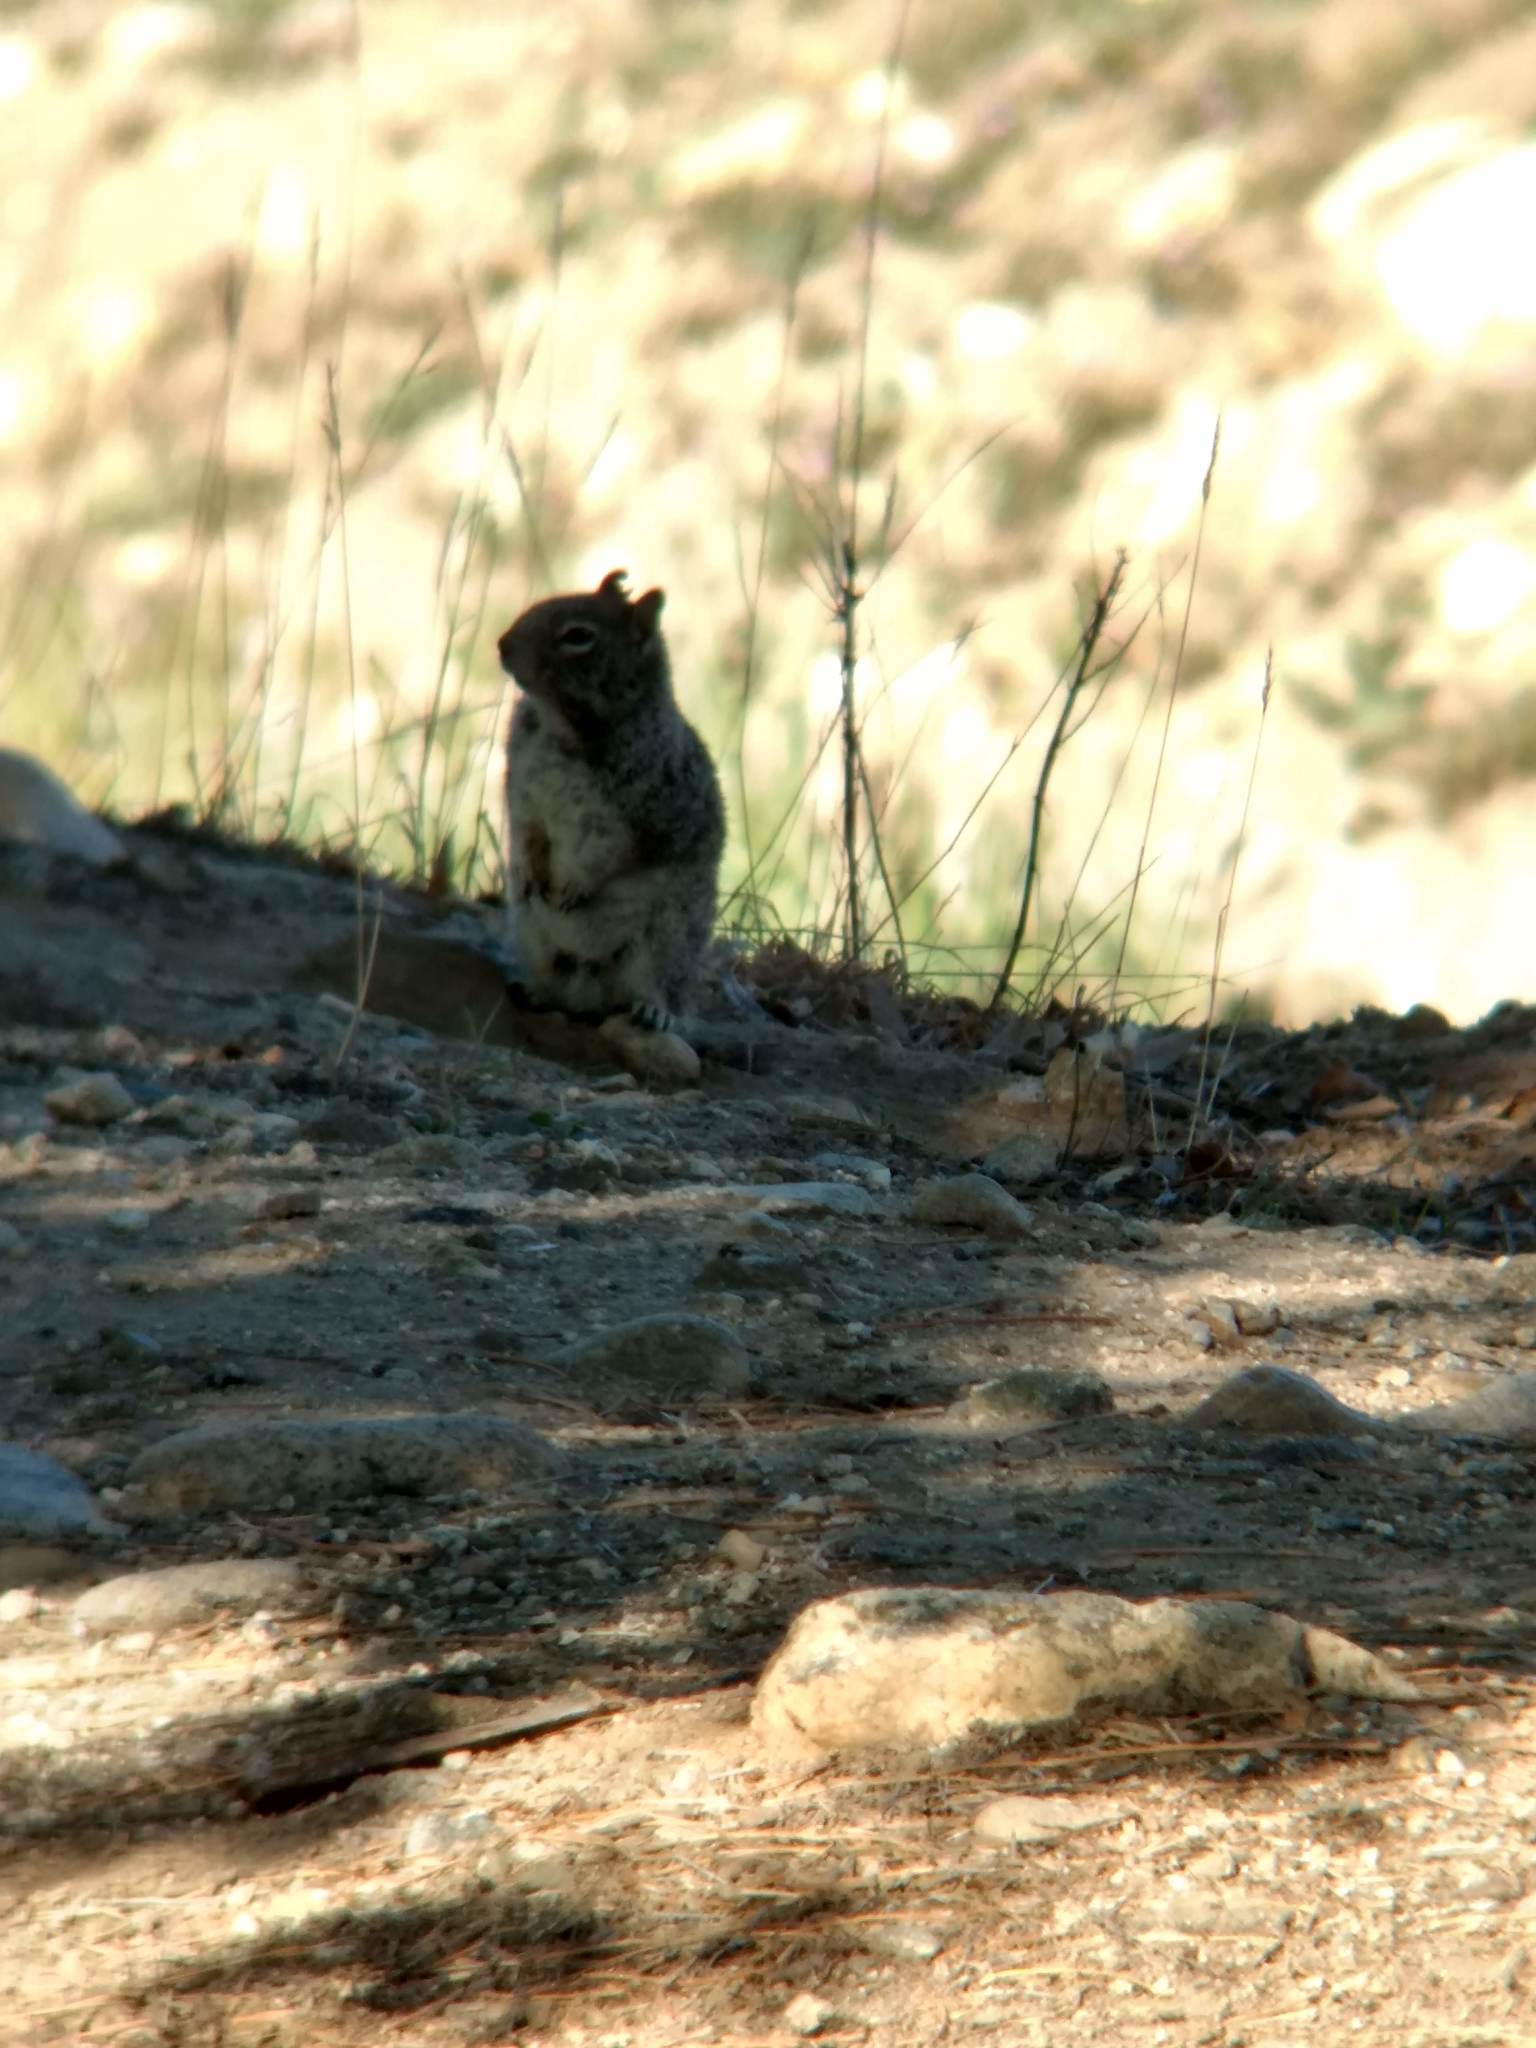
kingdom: Animalia
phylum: Chordata
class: Mammalia
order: Rodentia
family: Sciuridae
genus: Otospermophilus
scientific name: Otospermophilus beecheyi
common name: California ground squirrel
